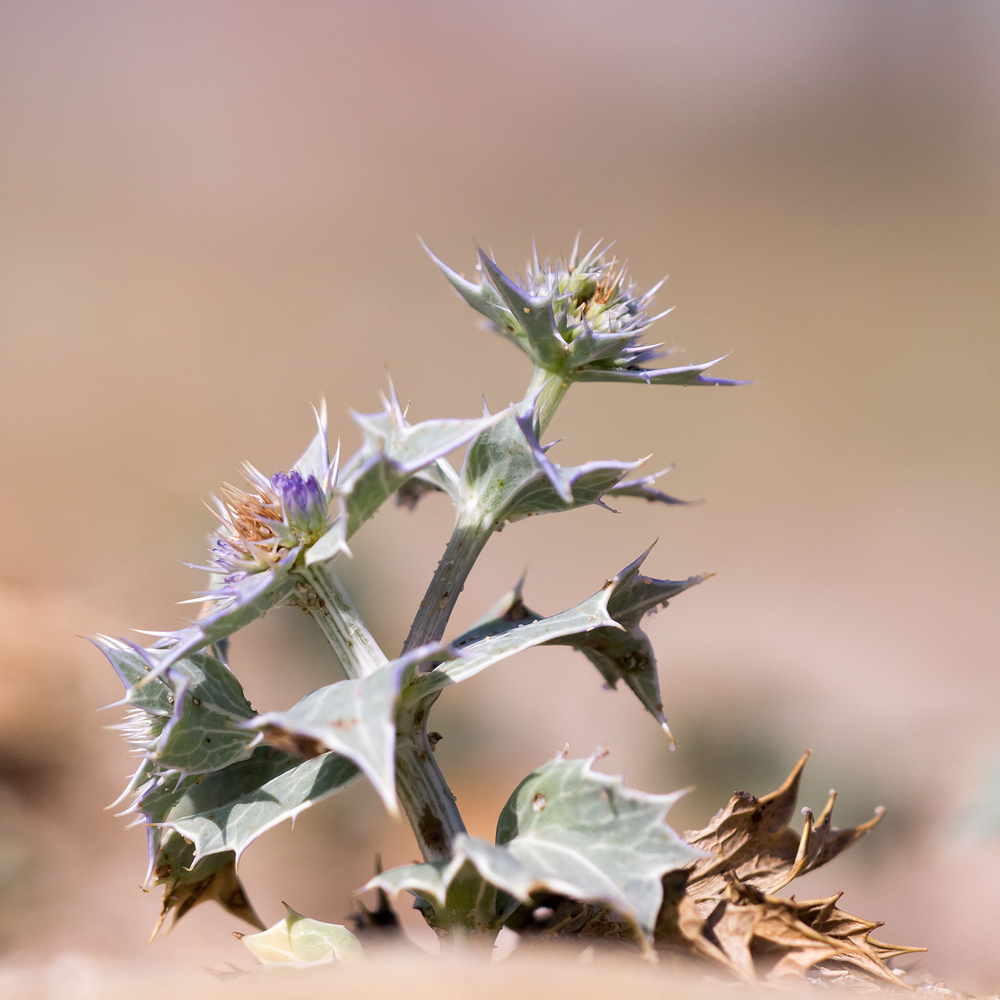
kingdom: Plantae
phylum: Tracheophyta
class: Magnoliopsida
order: Apiales
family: Apiaceae
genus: Eryngium
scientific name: Eryngium maritimum
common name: Sea-holly
